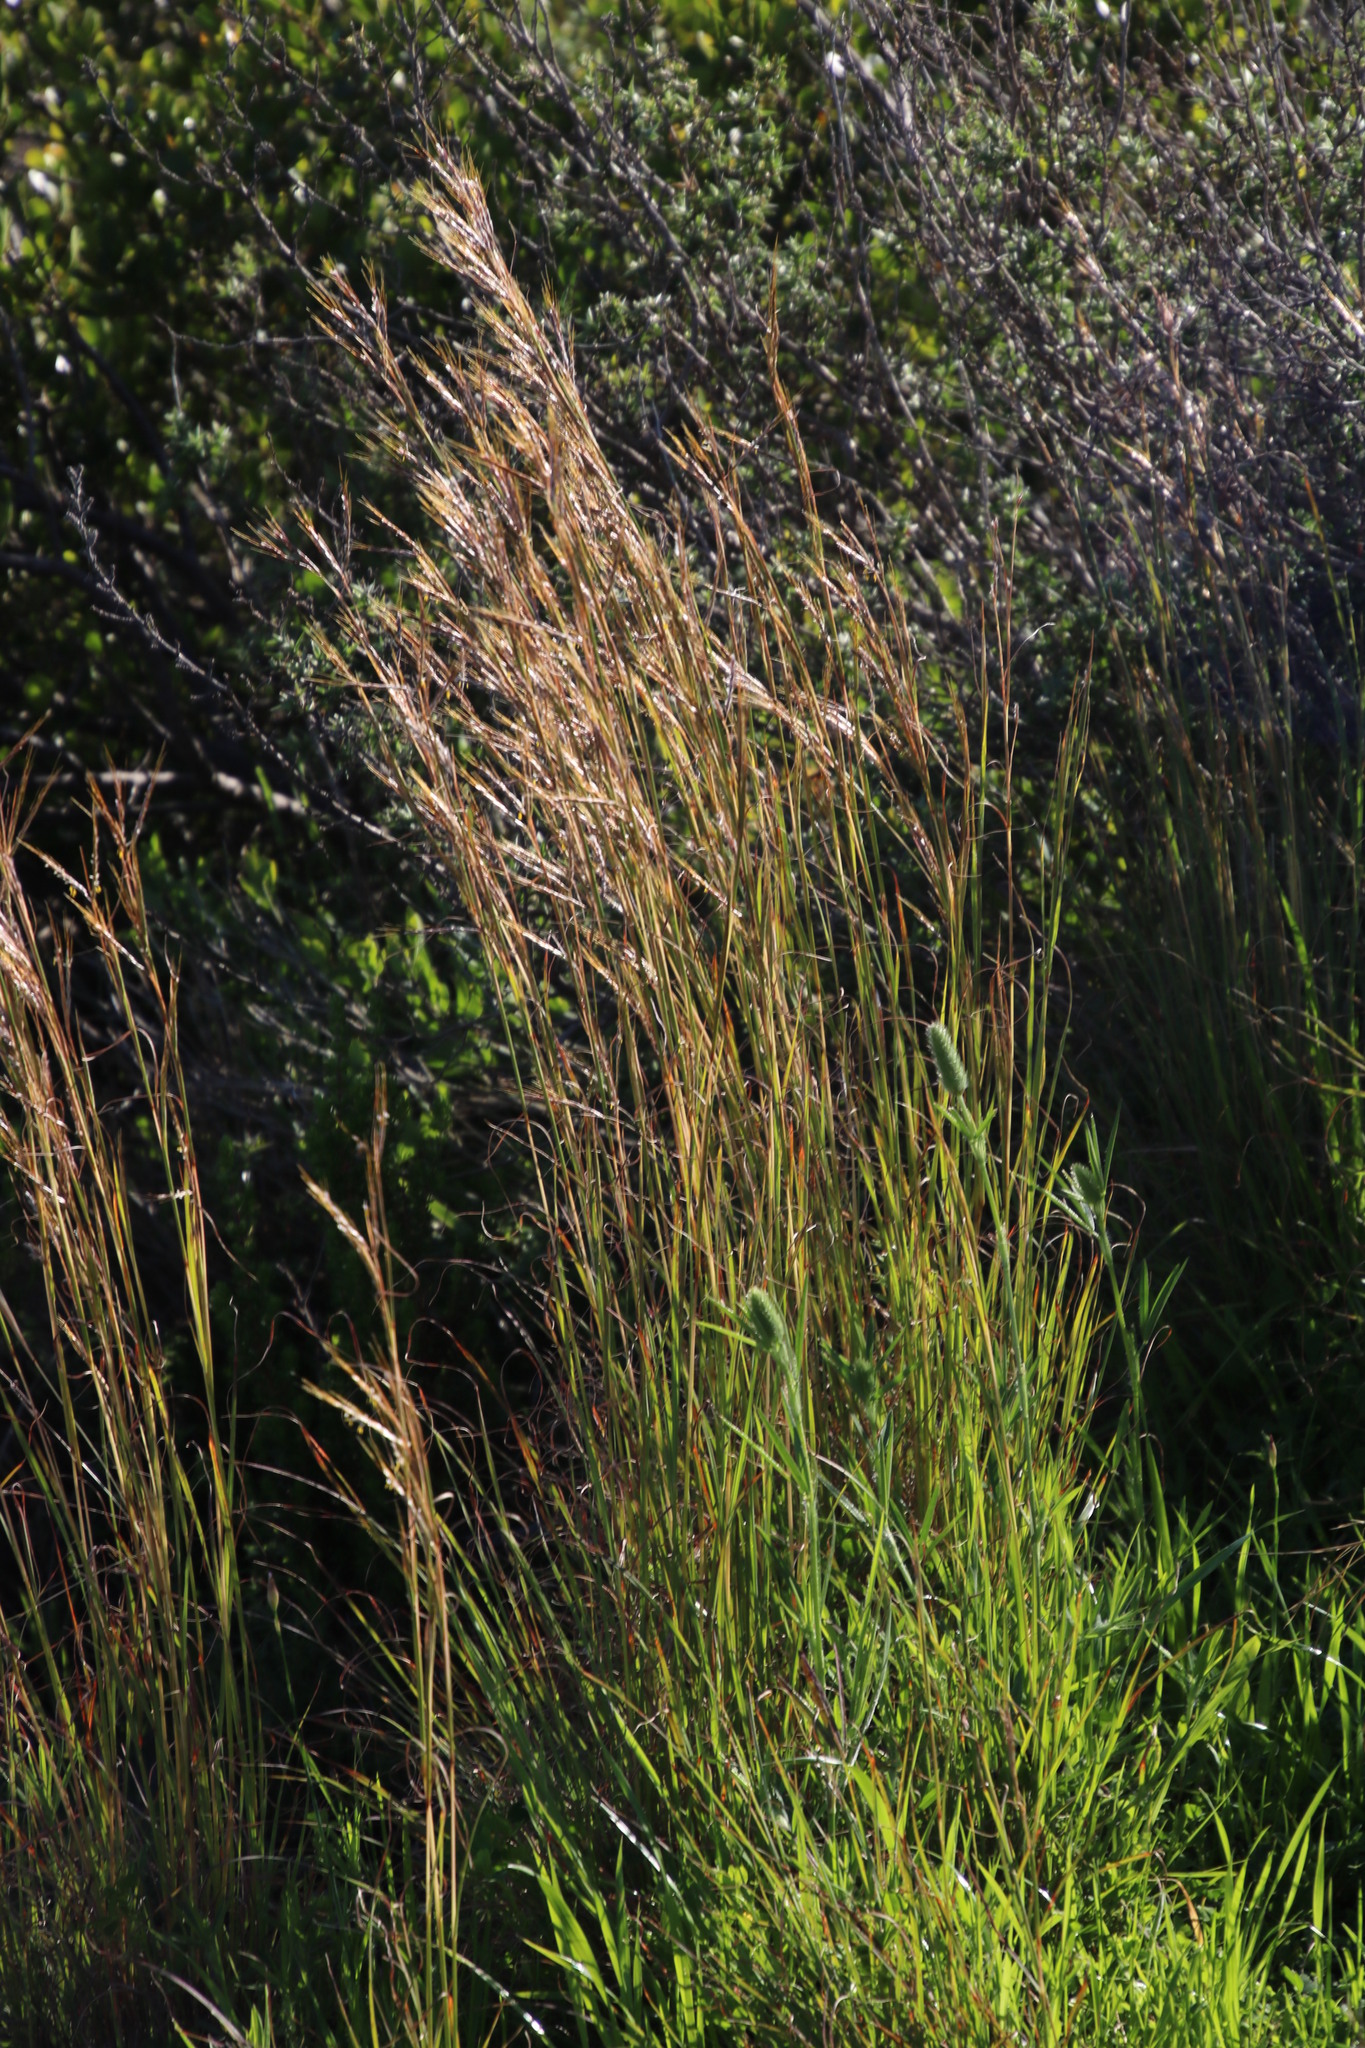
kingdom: Plantae
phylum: Tracheophyta
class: Liliopsida
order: Poales
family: Poaceae
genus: Hyparrhenia
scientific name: Hyparrhenia hirta
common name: Thatching grass
